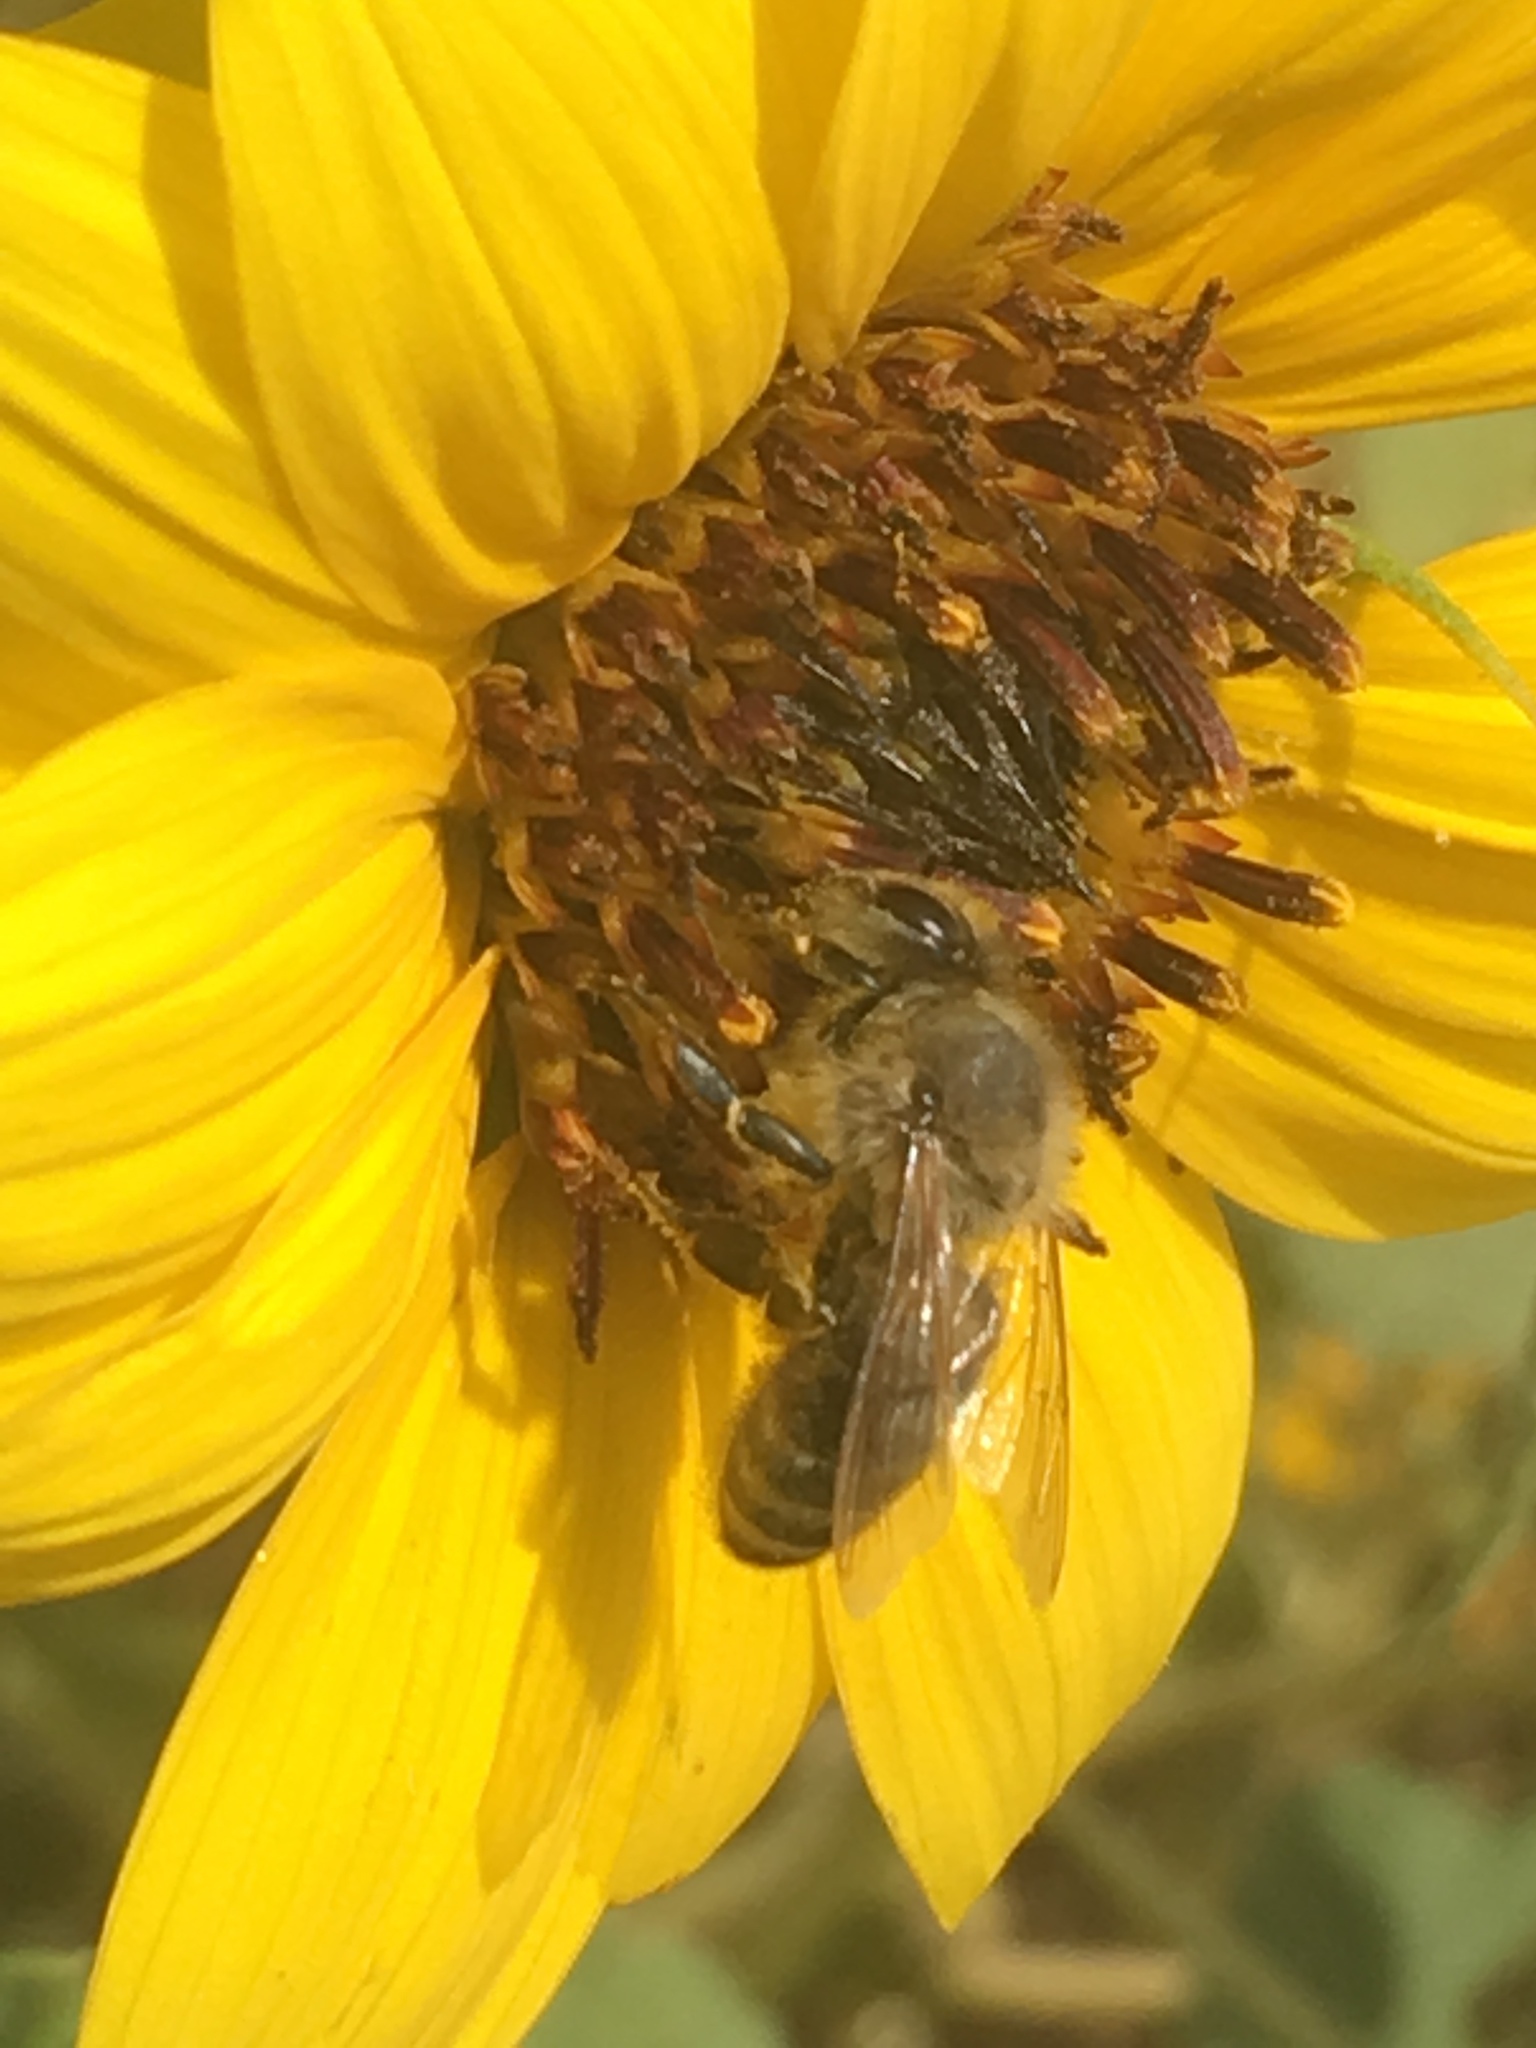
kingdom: Animalia
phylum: Arthropoda
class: Insecta
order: Hymenoptera
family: Apidae
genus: Apis
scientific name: Apis mellifera
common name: Honey bee
